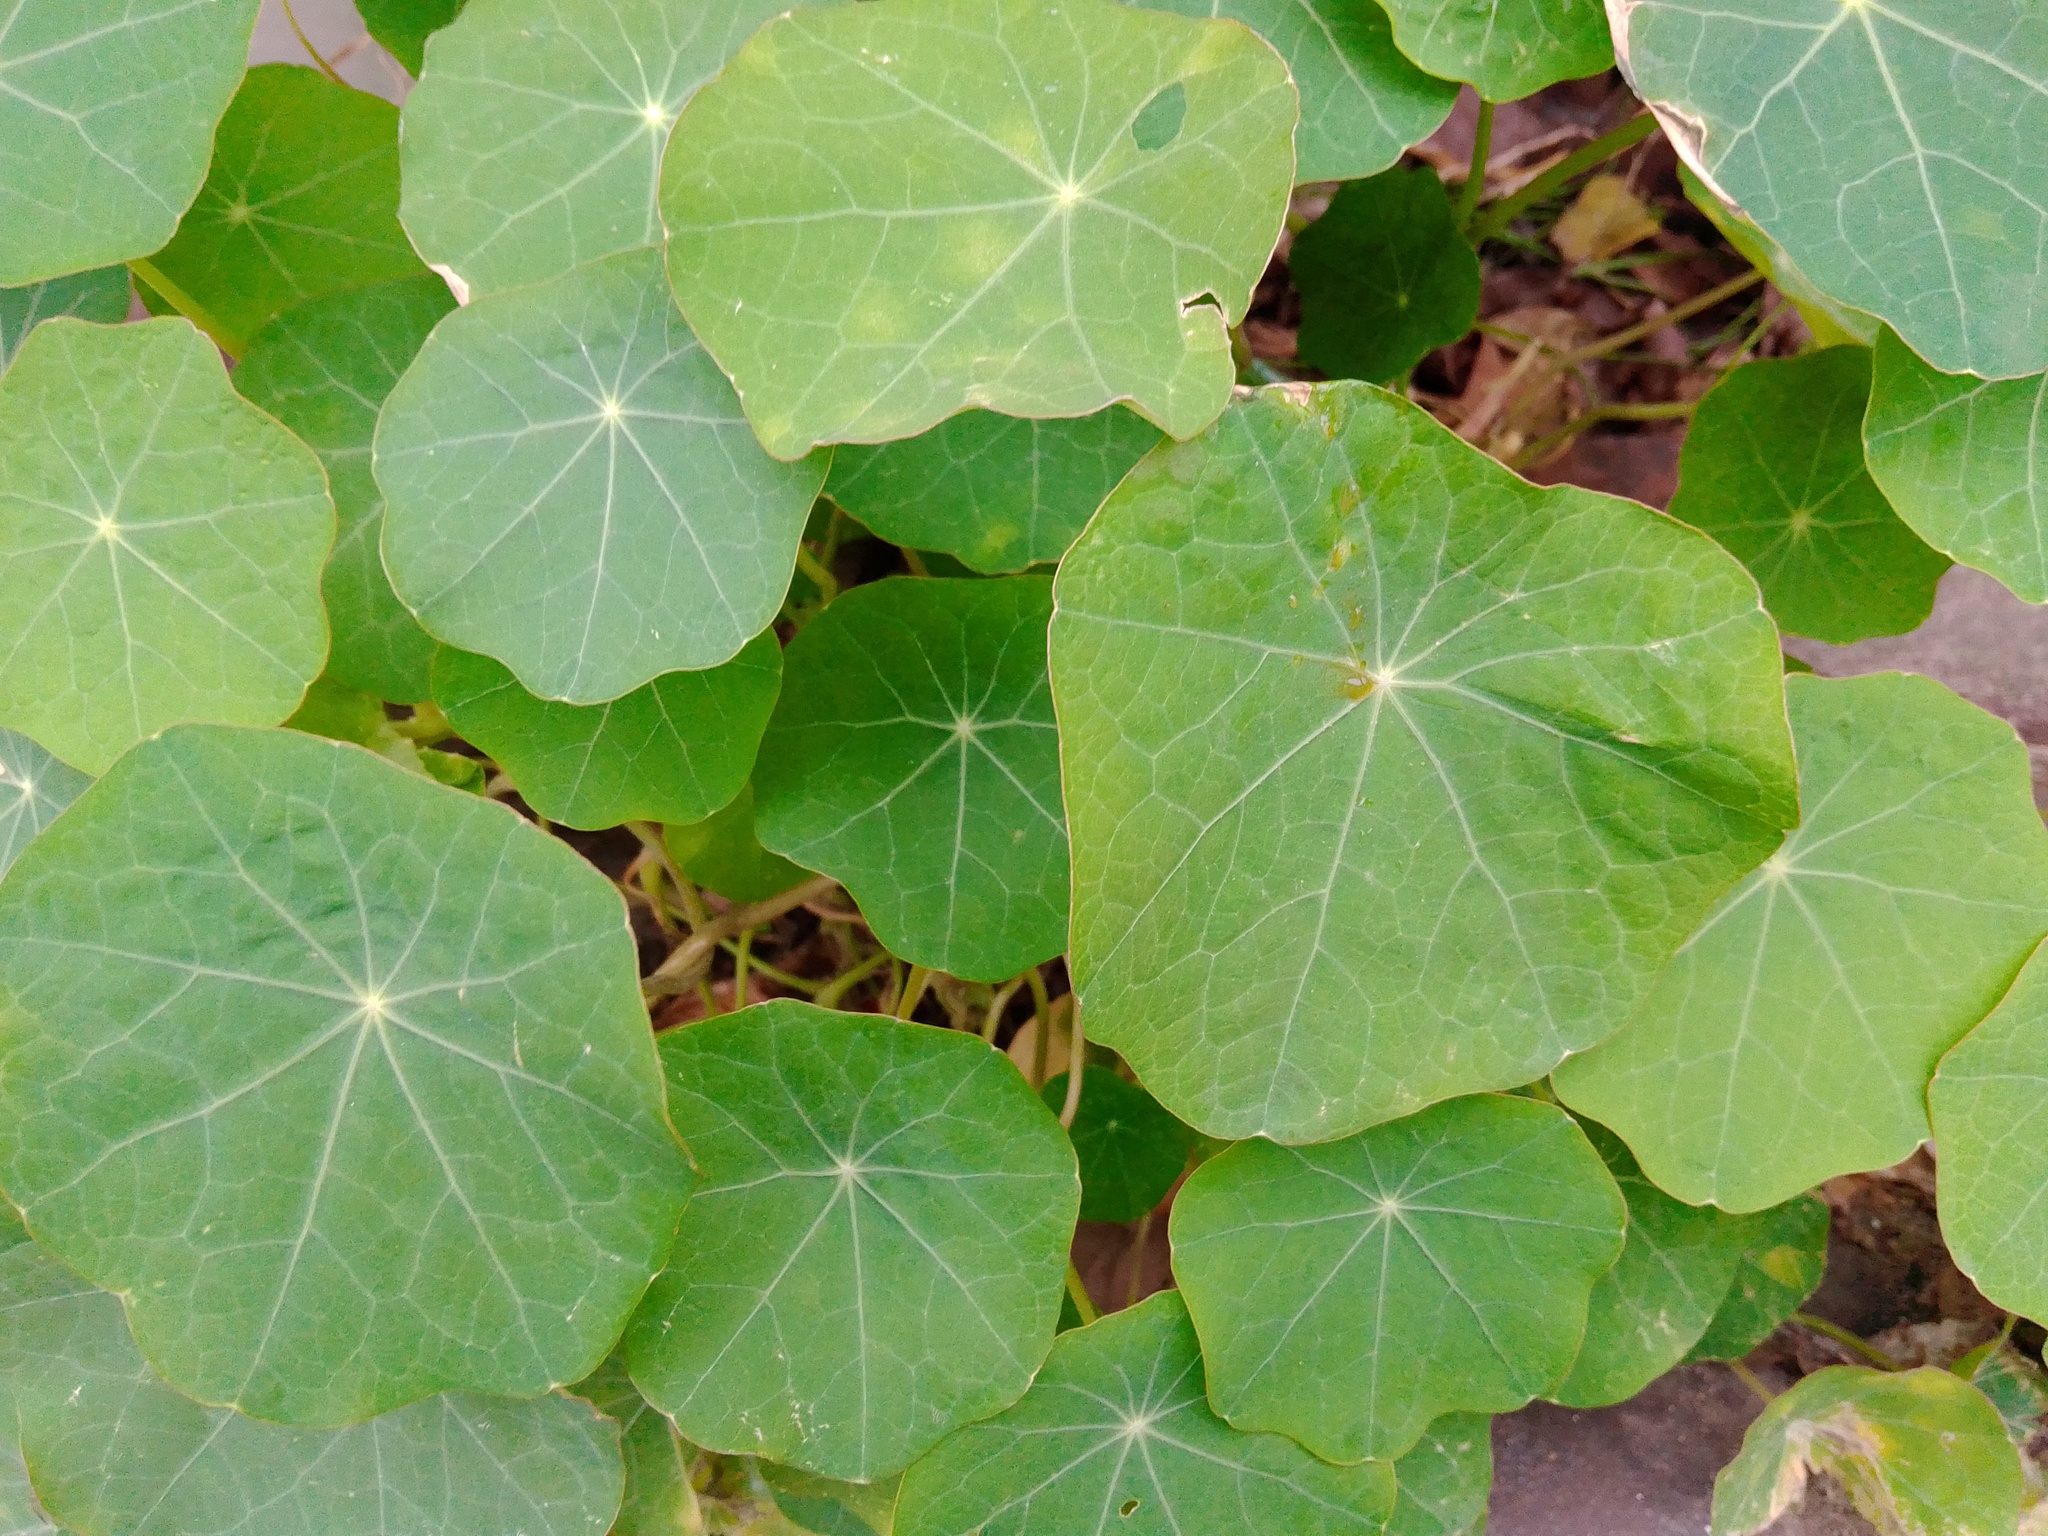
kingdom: Plantae
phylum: Tracheophyta
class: Magnoliopsida
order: Brassicales
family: Tropaeolaceae
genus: Tropaeolum
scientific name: Tropaeolum majus
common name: Nasturtium
